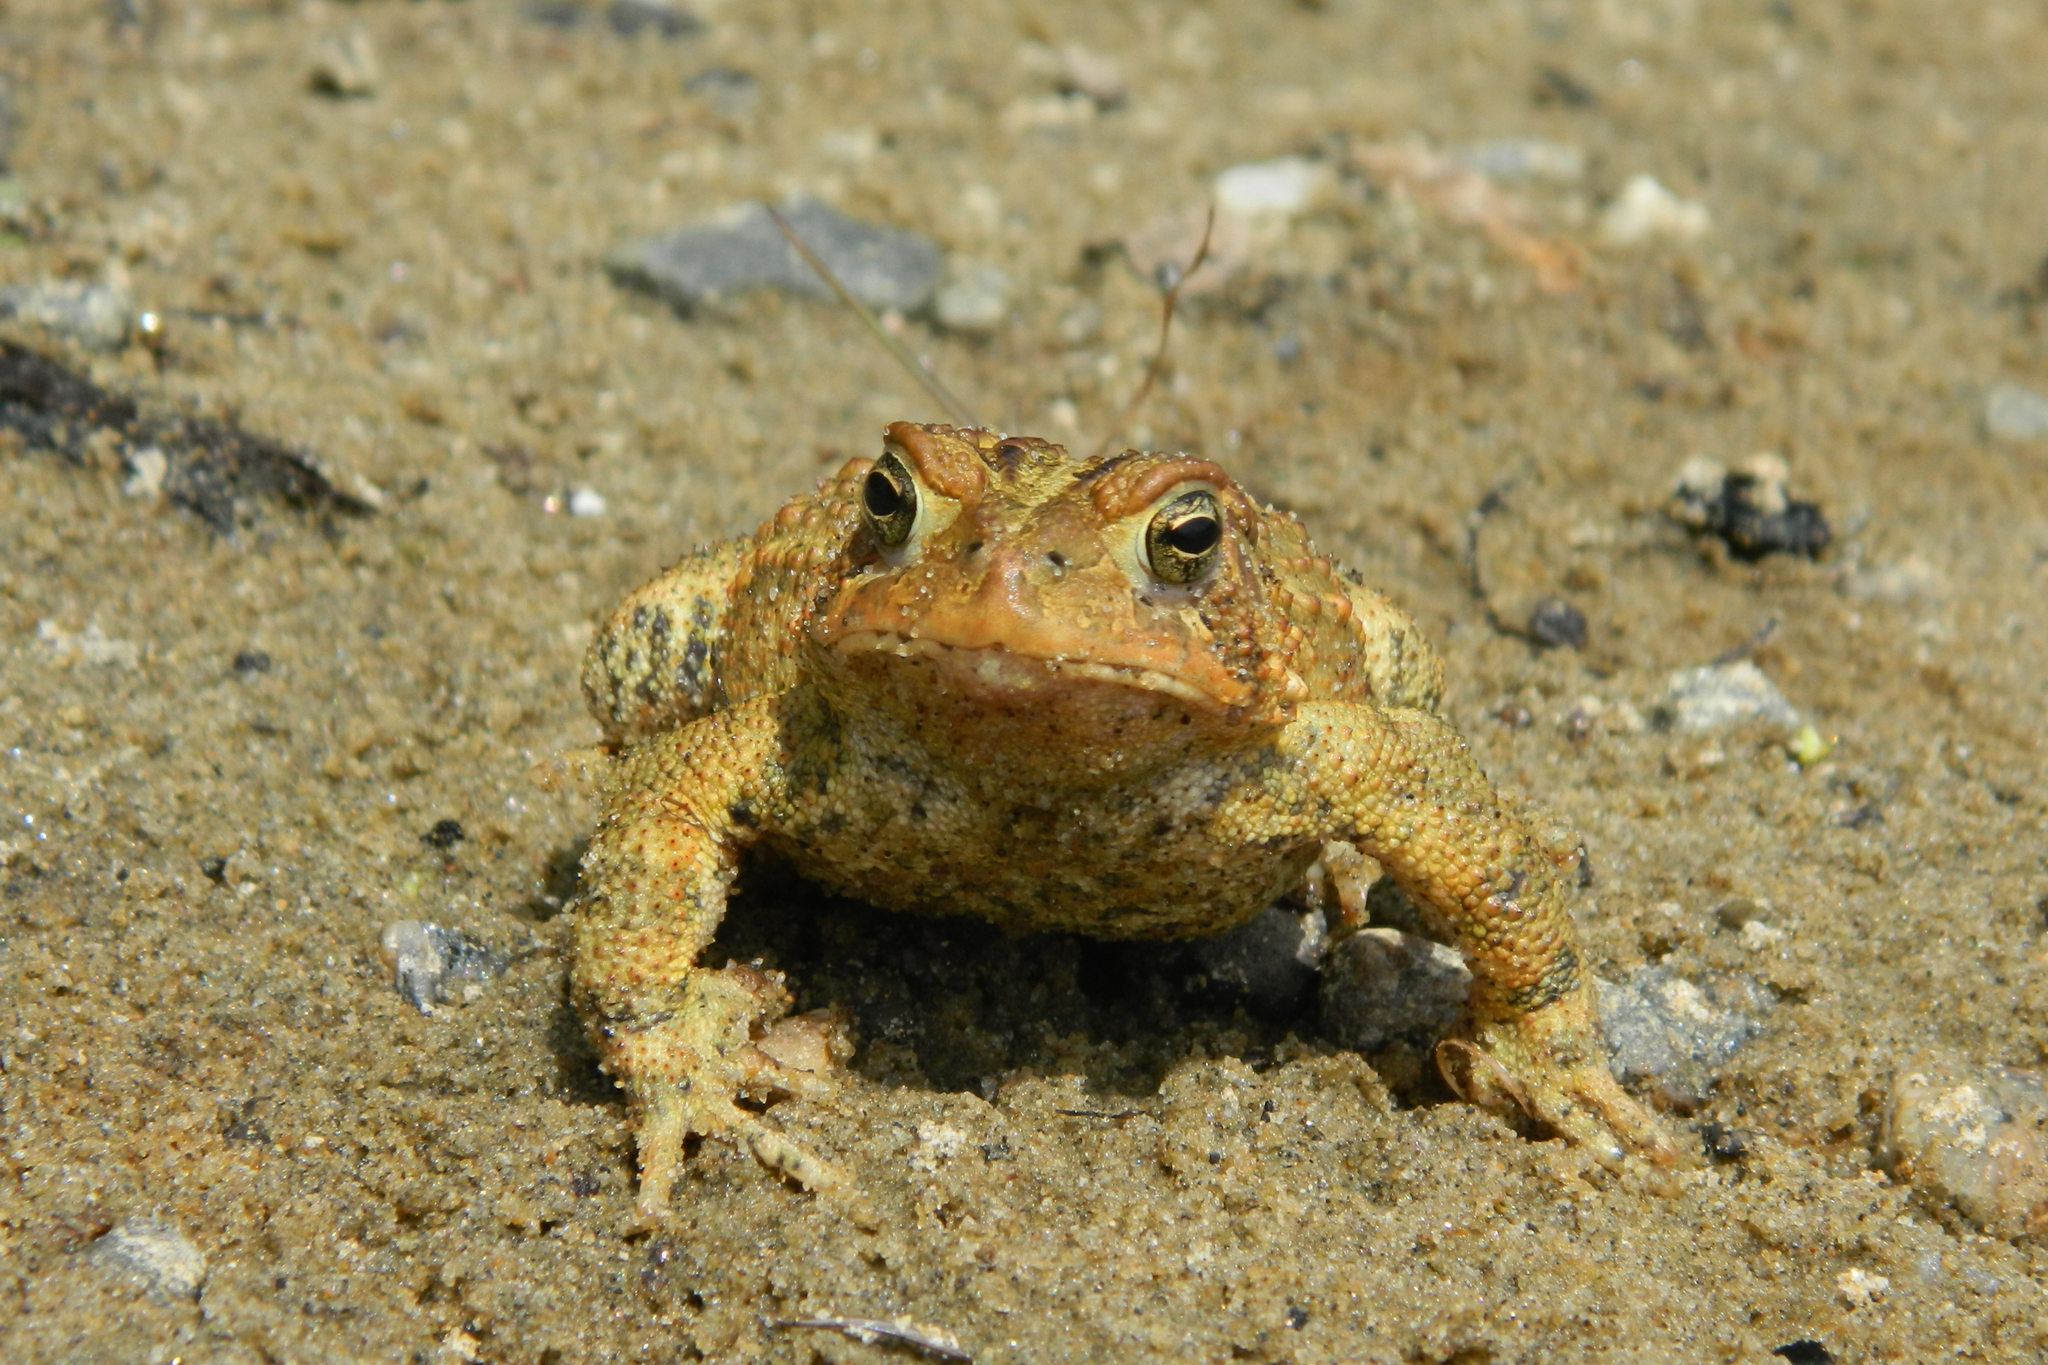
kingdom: Animalia
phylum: Chordata
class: Amphibia
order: Anura
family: Bufonidae
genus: Anaxyrus
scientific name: Anaxyrus americanus
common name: American toad
